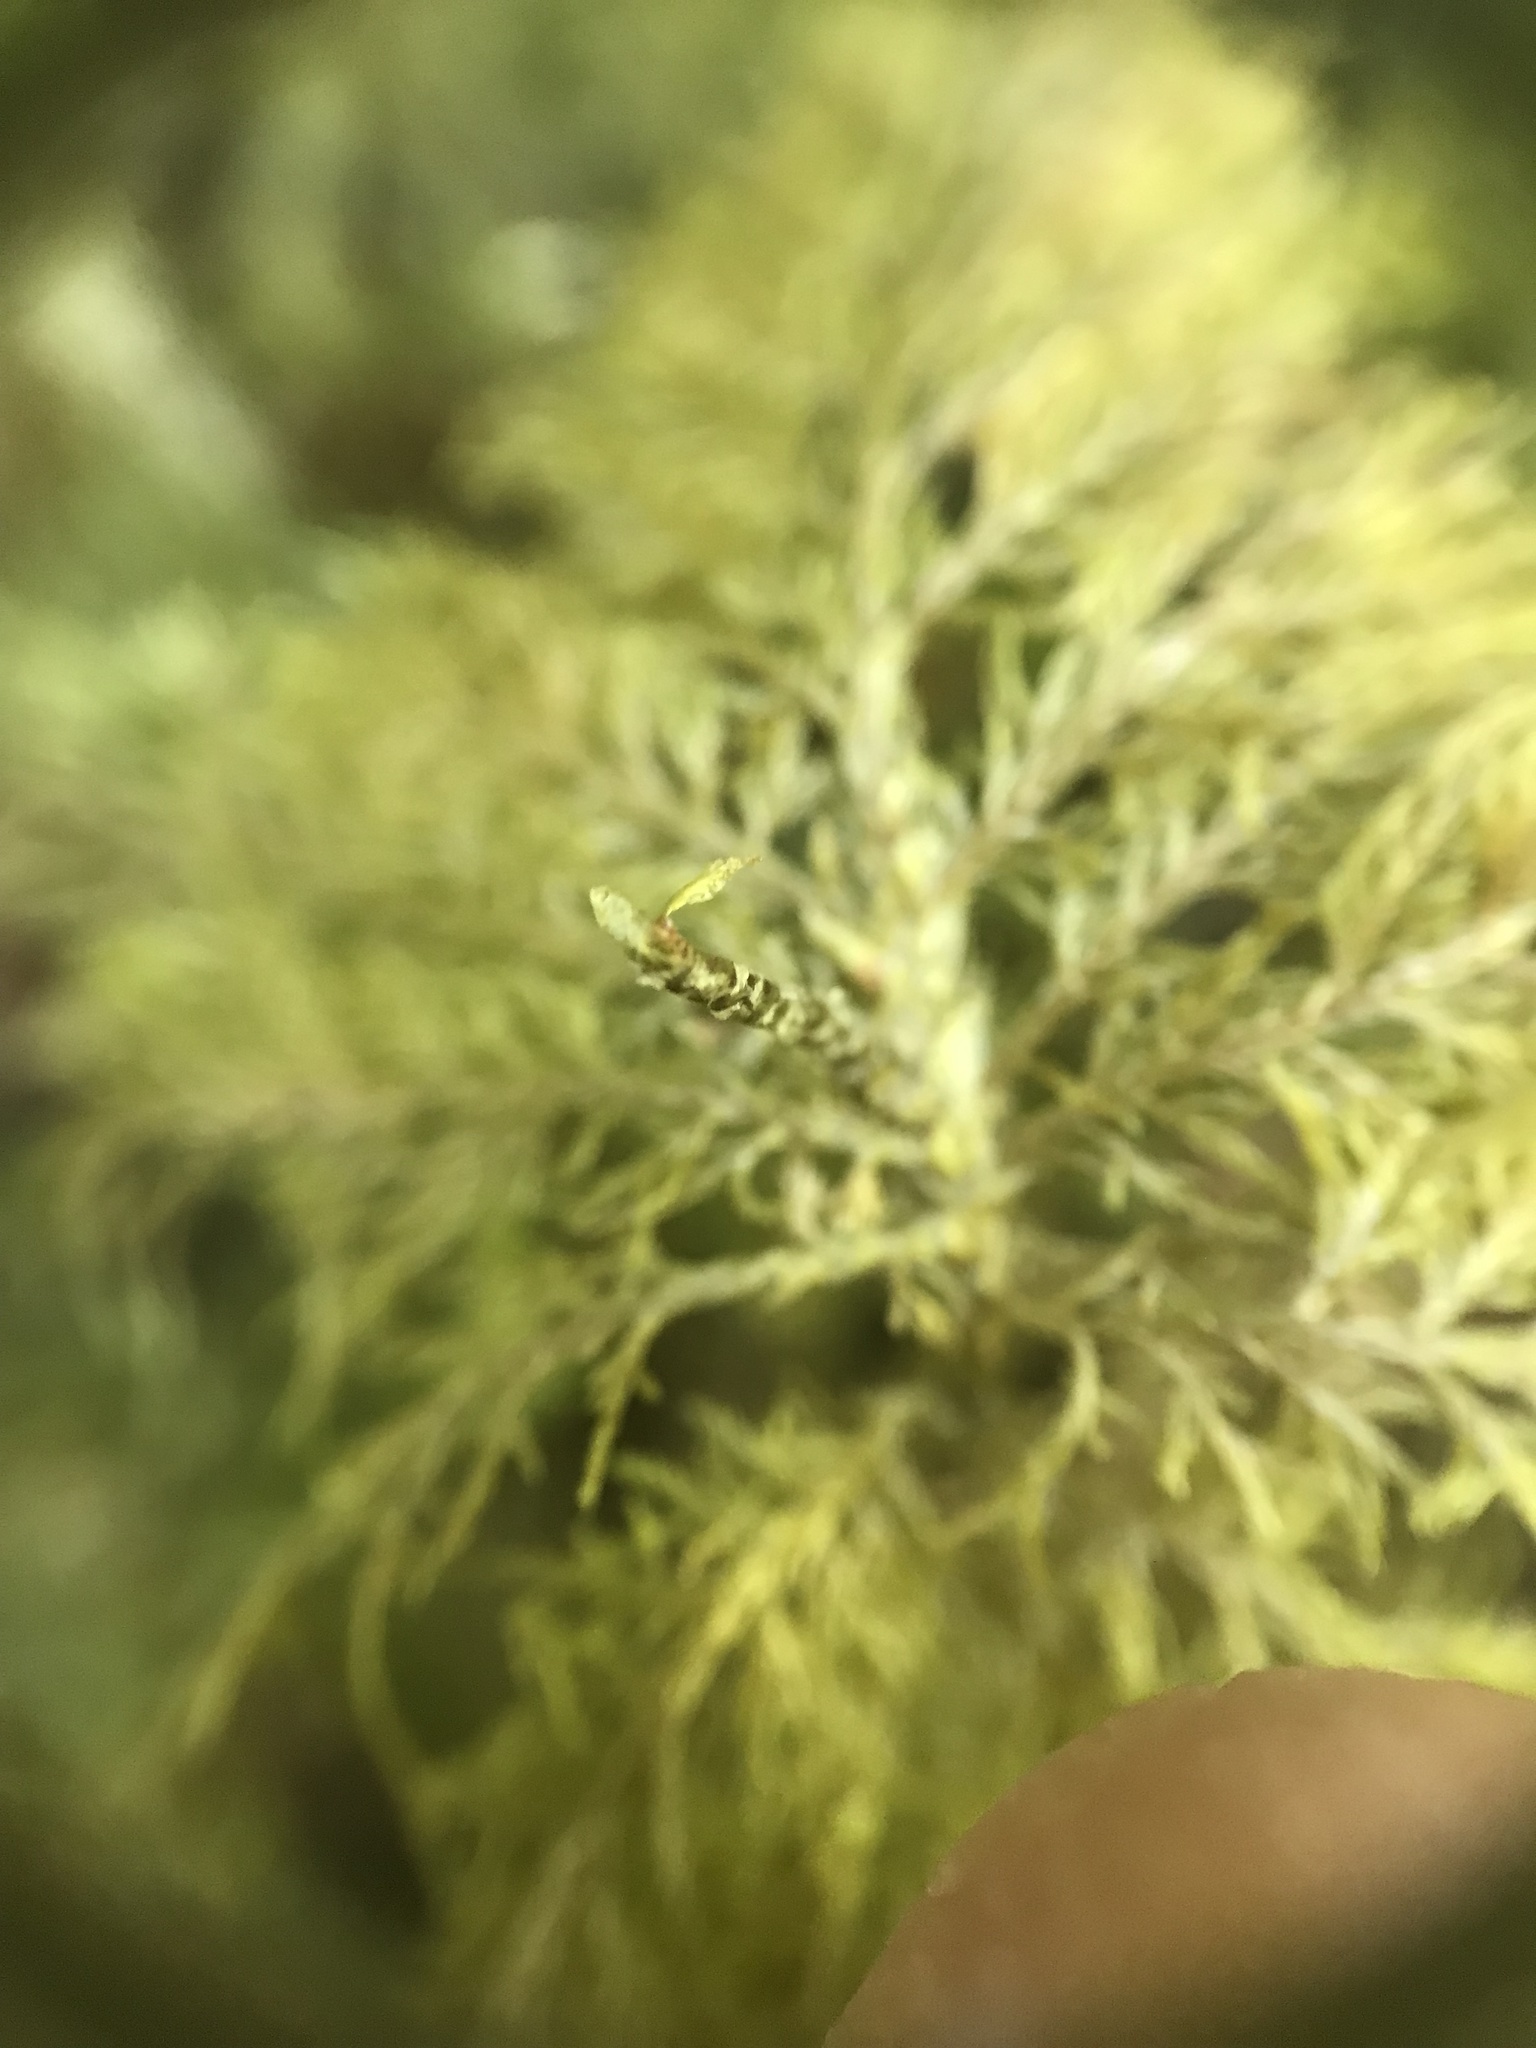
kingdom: Plantae
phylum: Bryophyta
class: Bryopsida
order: Hypnales
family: Hylocomiaceae
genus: Hylocomium
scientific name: Hylocomium splendens
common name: Stairstep moss
